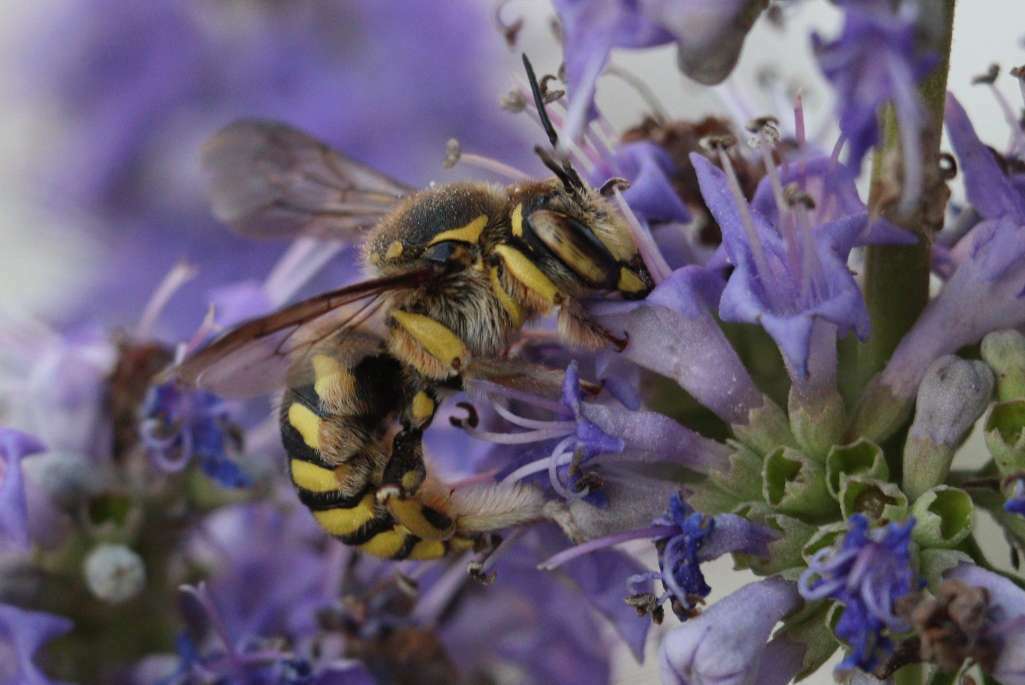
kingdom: Animalia
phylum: Arthropoda
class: Insecta
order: Hymenoptera
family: Megachilidae
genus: Anthidium
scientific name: Anthidium florentinum
